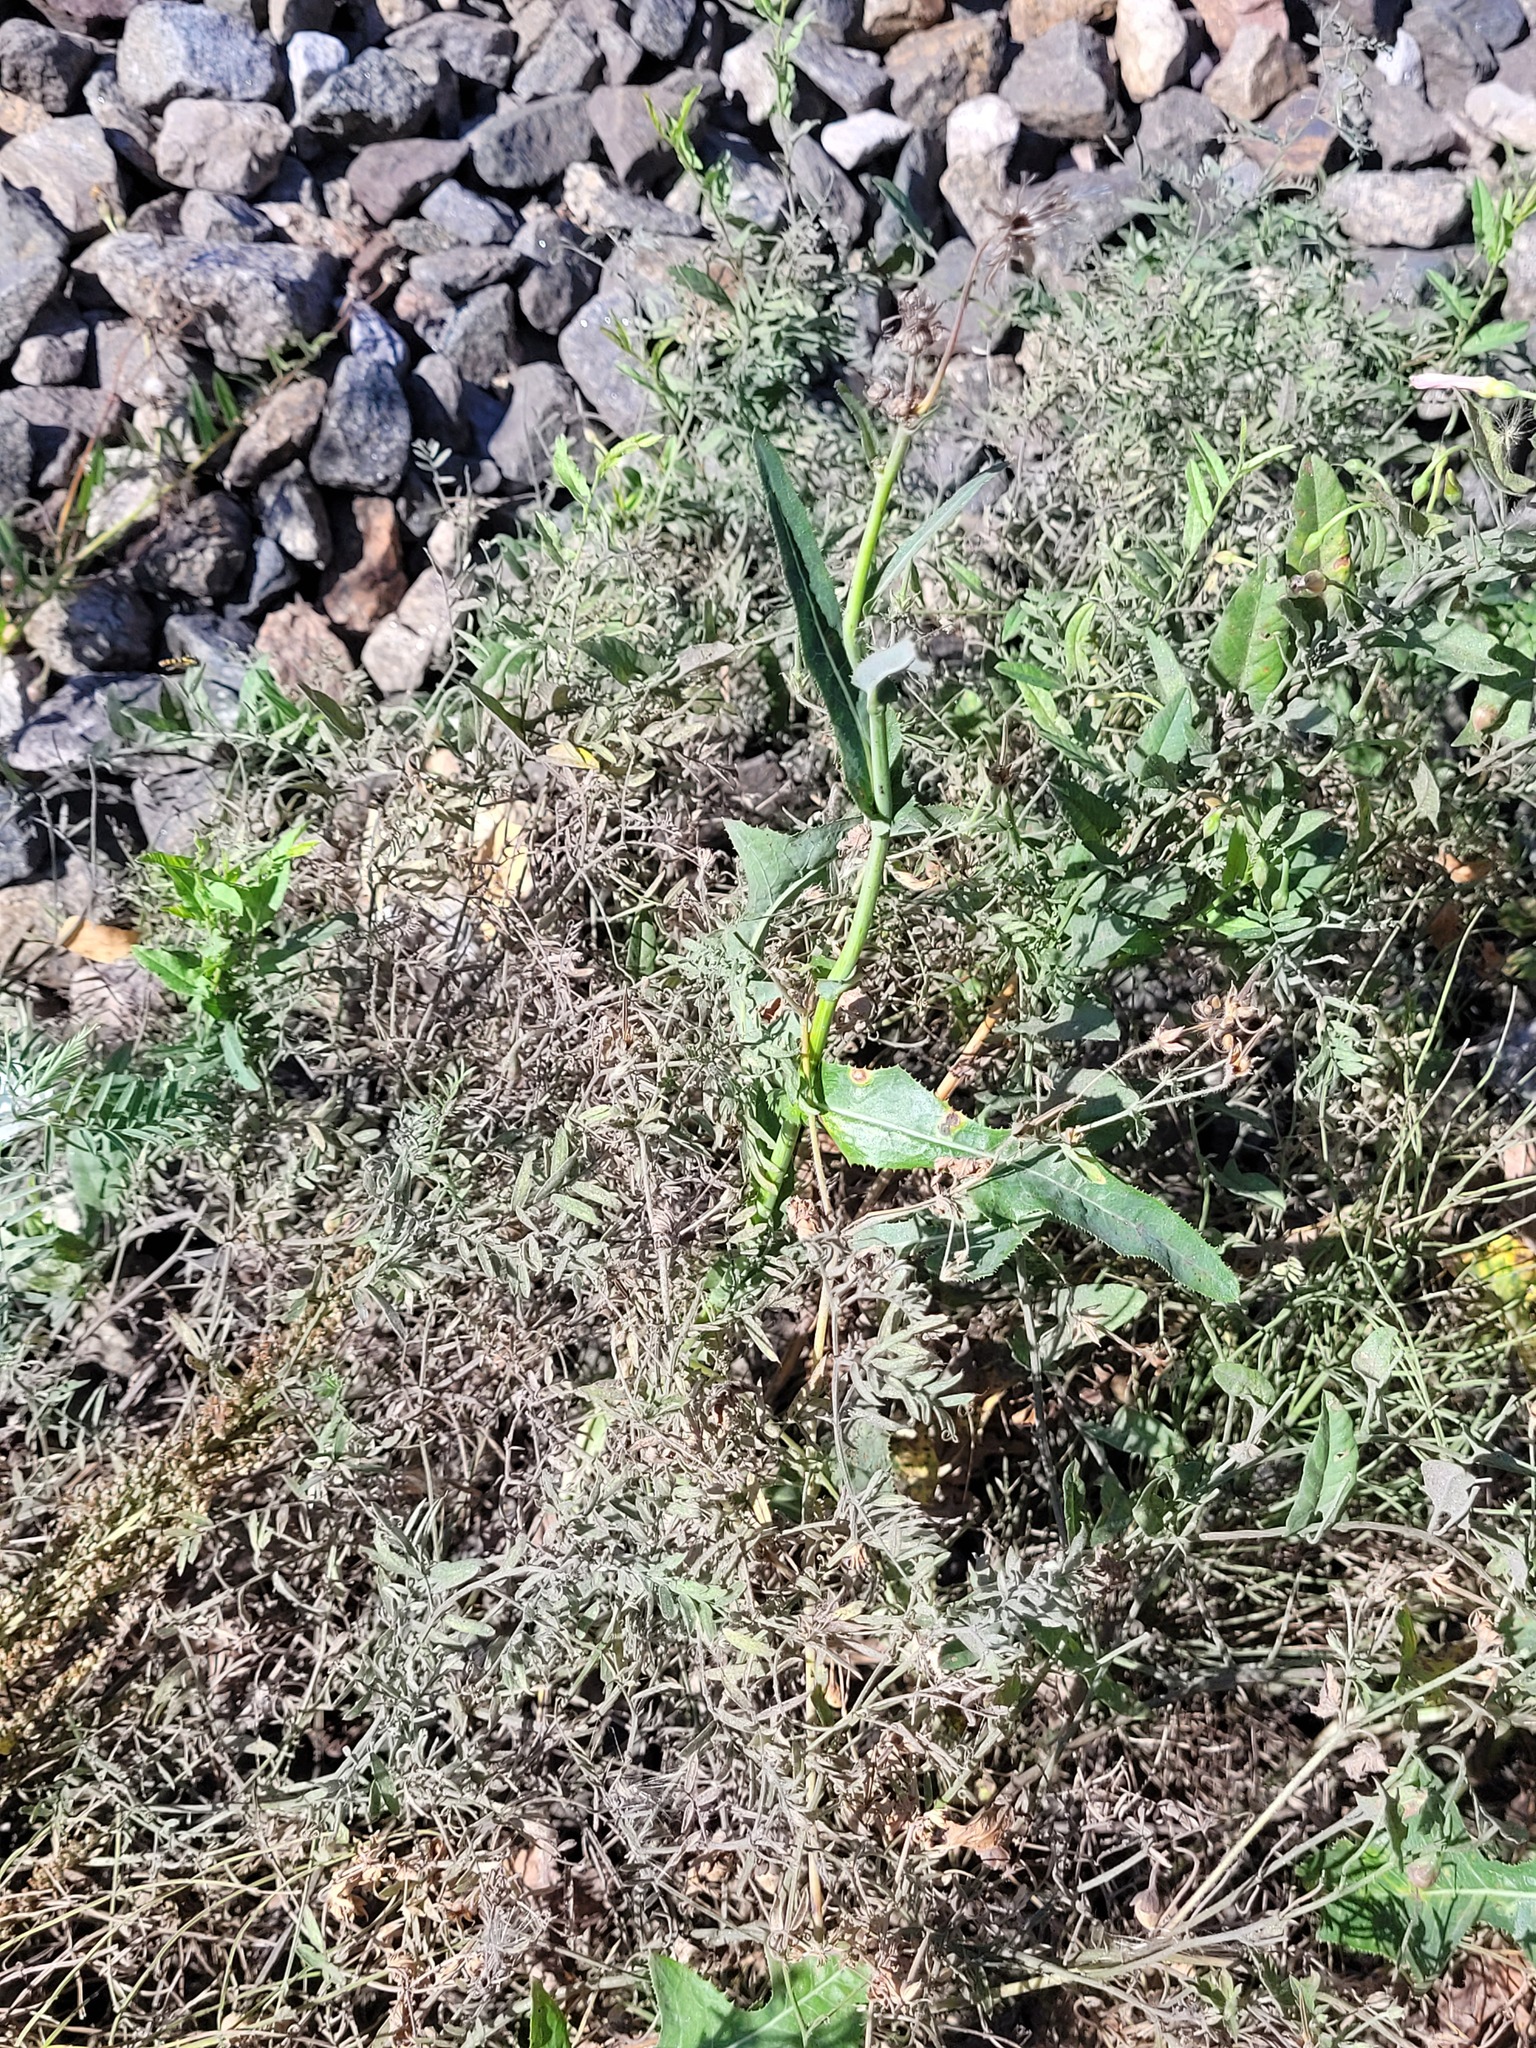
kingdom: Plantae
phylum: Tracheophyta
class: Magnoliopsida
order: Fabales
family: Fabaceae
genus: Vicia
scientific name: Vicia cracca
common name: Bird vetch
